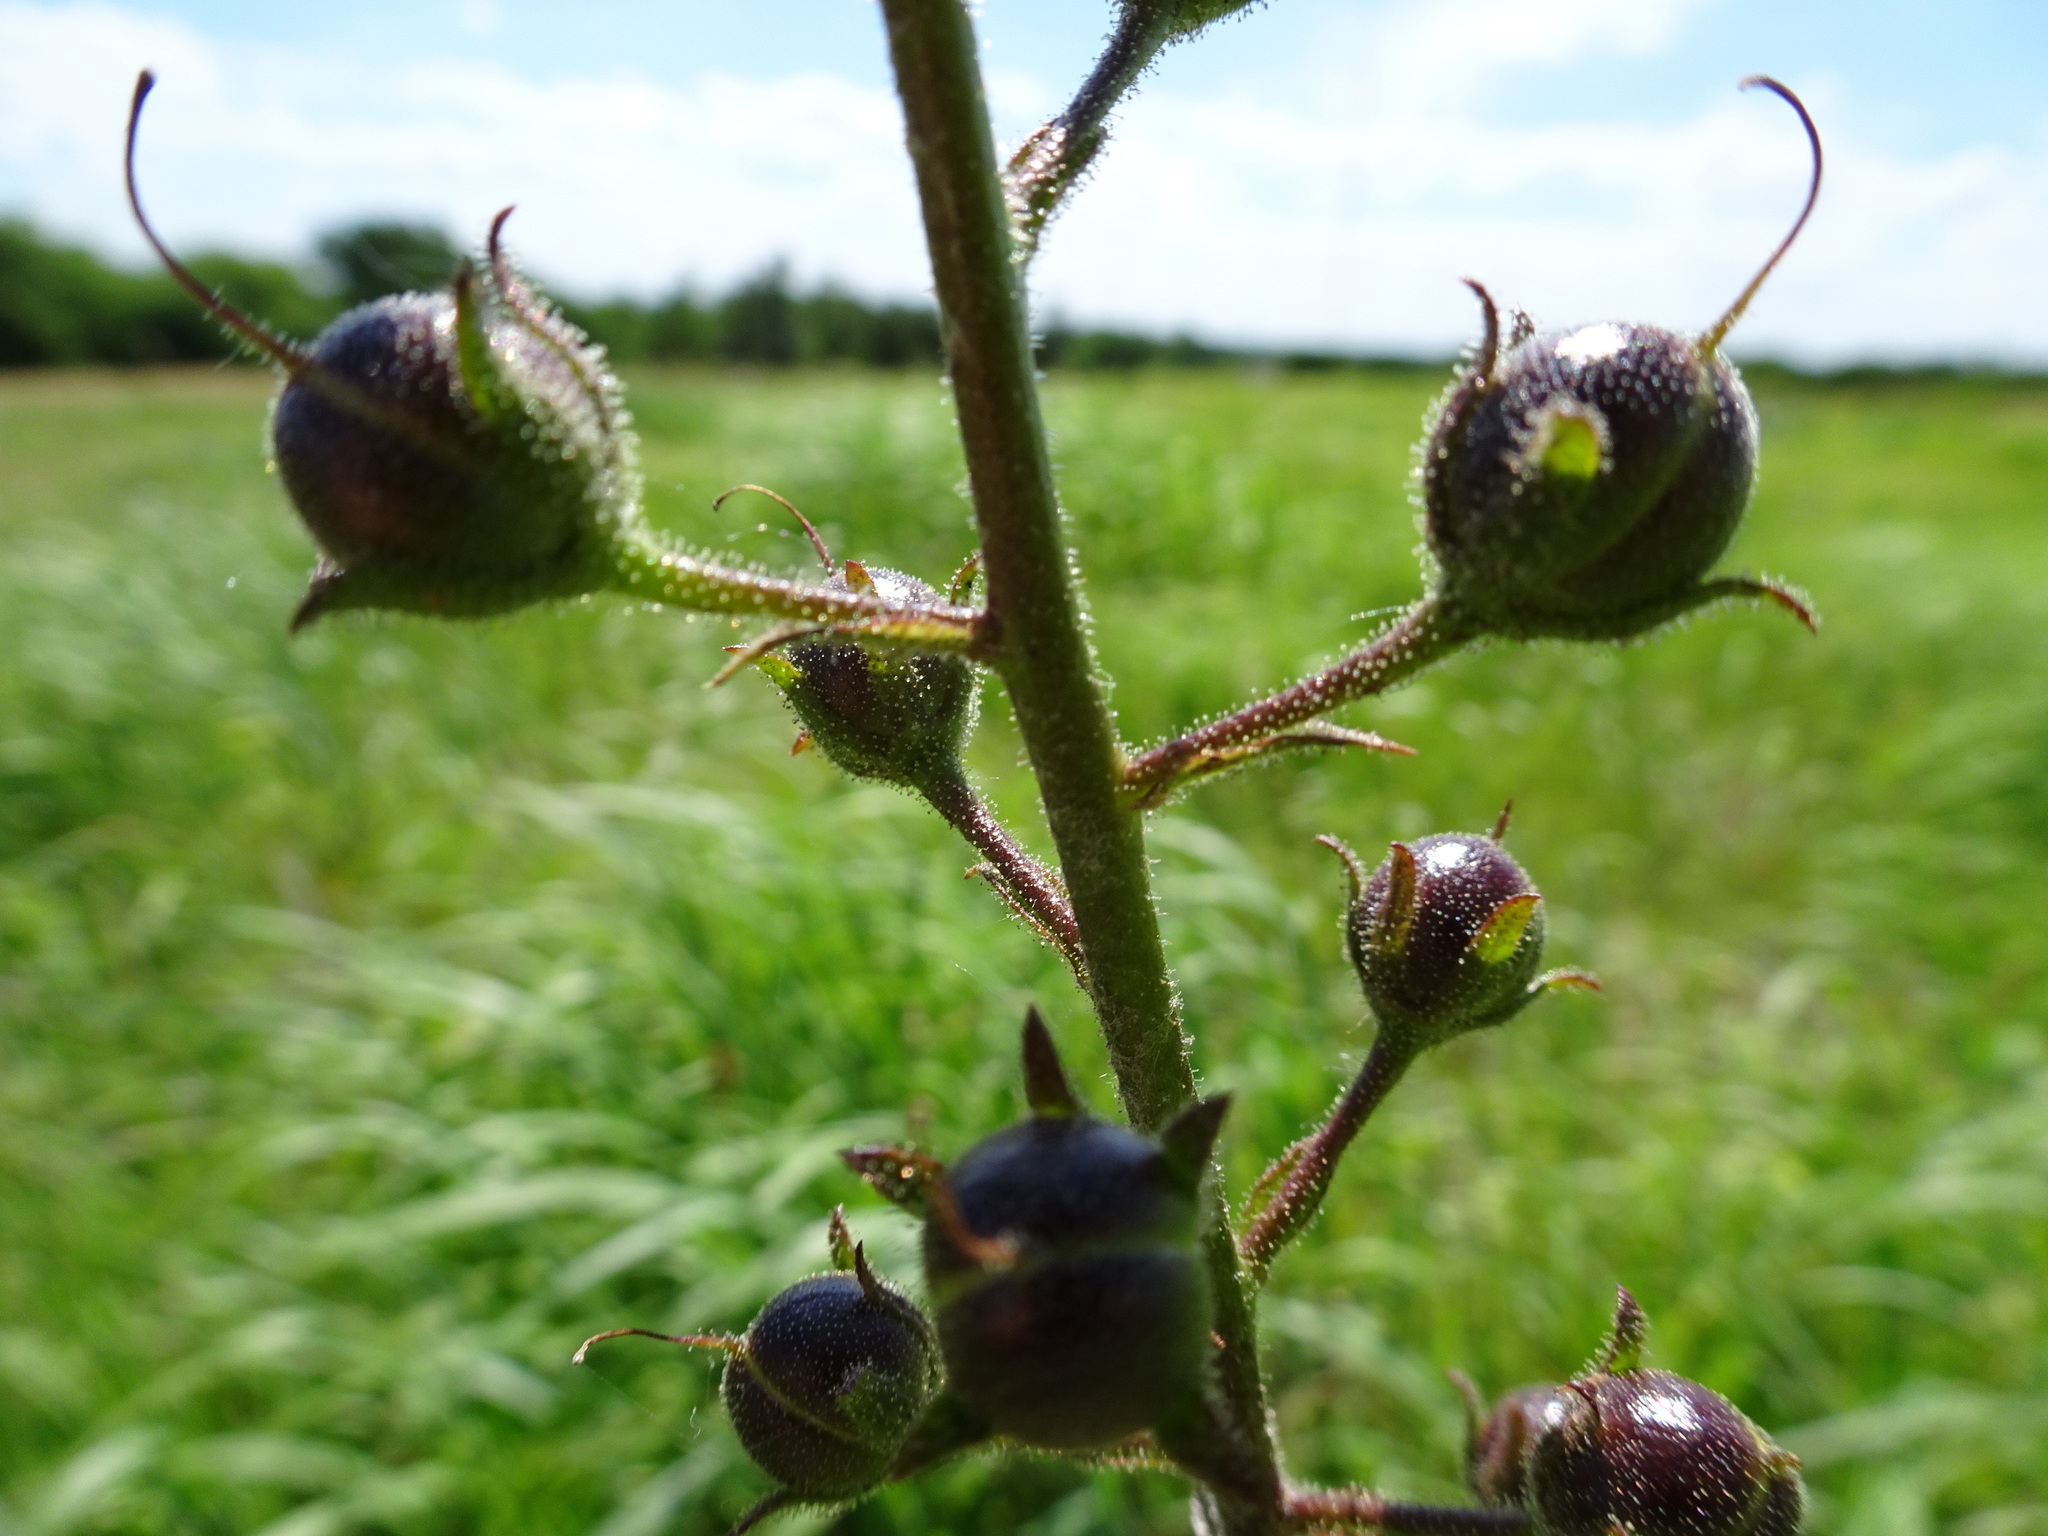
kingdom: Plantae
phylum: Tracheophyta
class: Magnoliopsida
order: Lamiales
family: Scrophulariaceae
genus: Verbascum
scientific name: Verbascum blattaria
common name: Moth mullein
